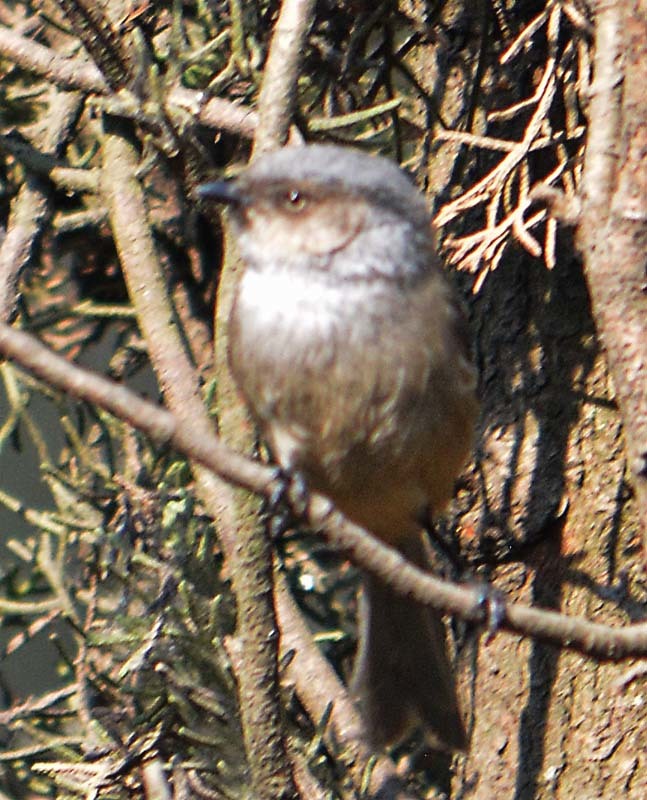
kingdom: Animalia
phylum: Chordata
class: Aves
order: Passeriformes
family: Aegithalidae
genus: Psaltriparus
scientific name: Psaltriparus minimus
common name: American bushtit
